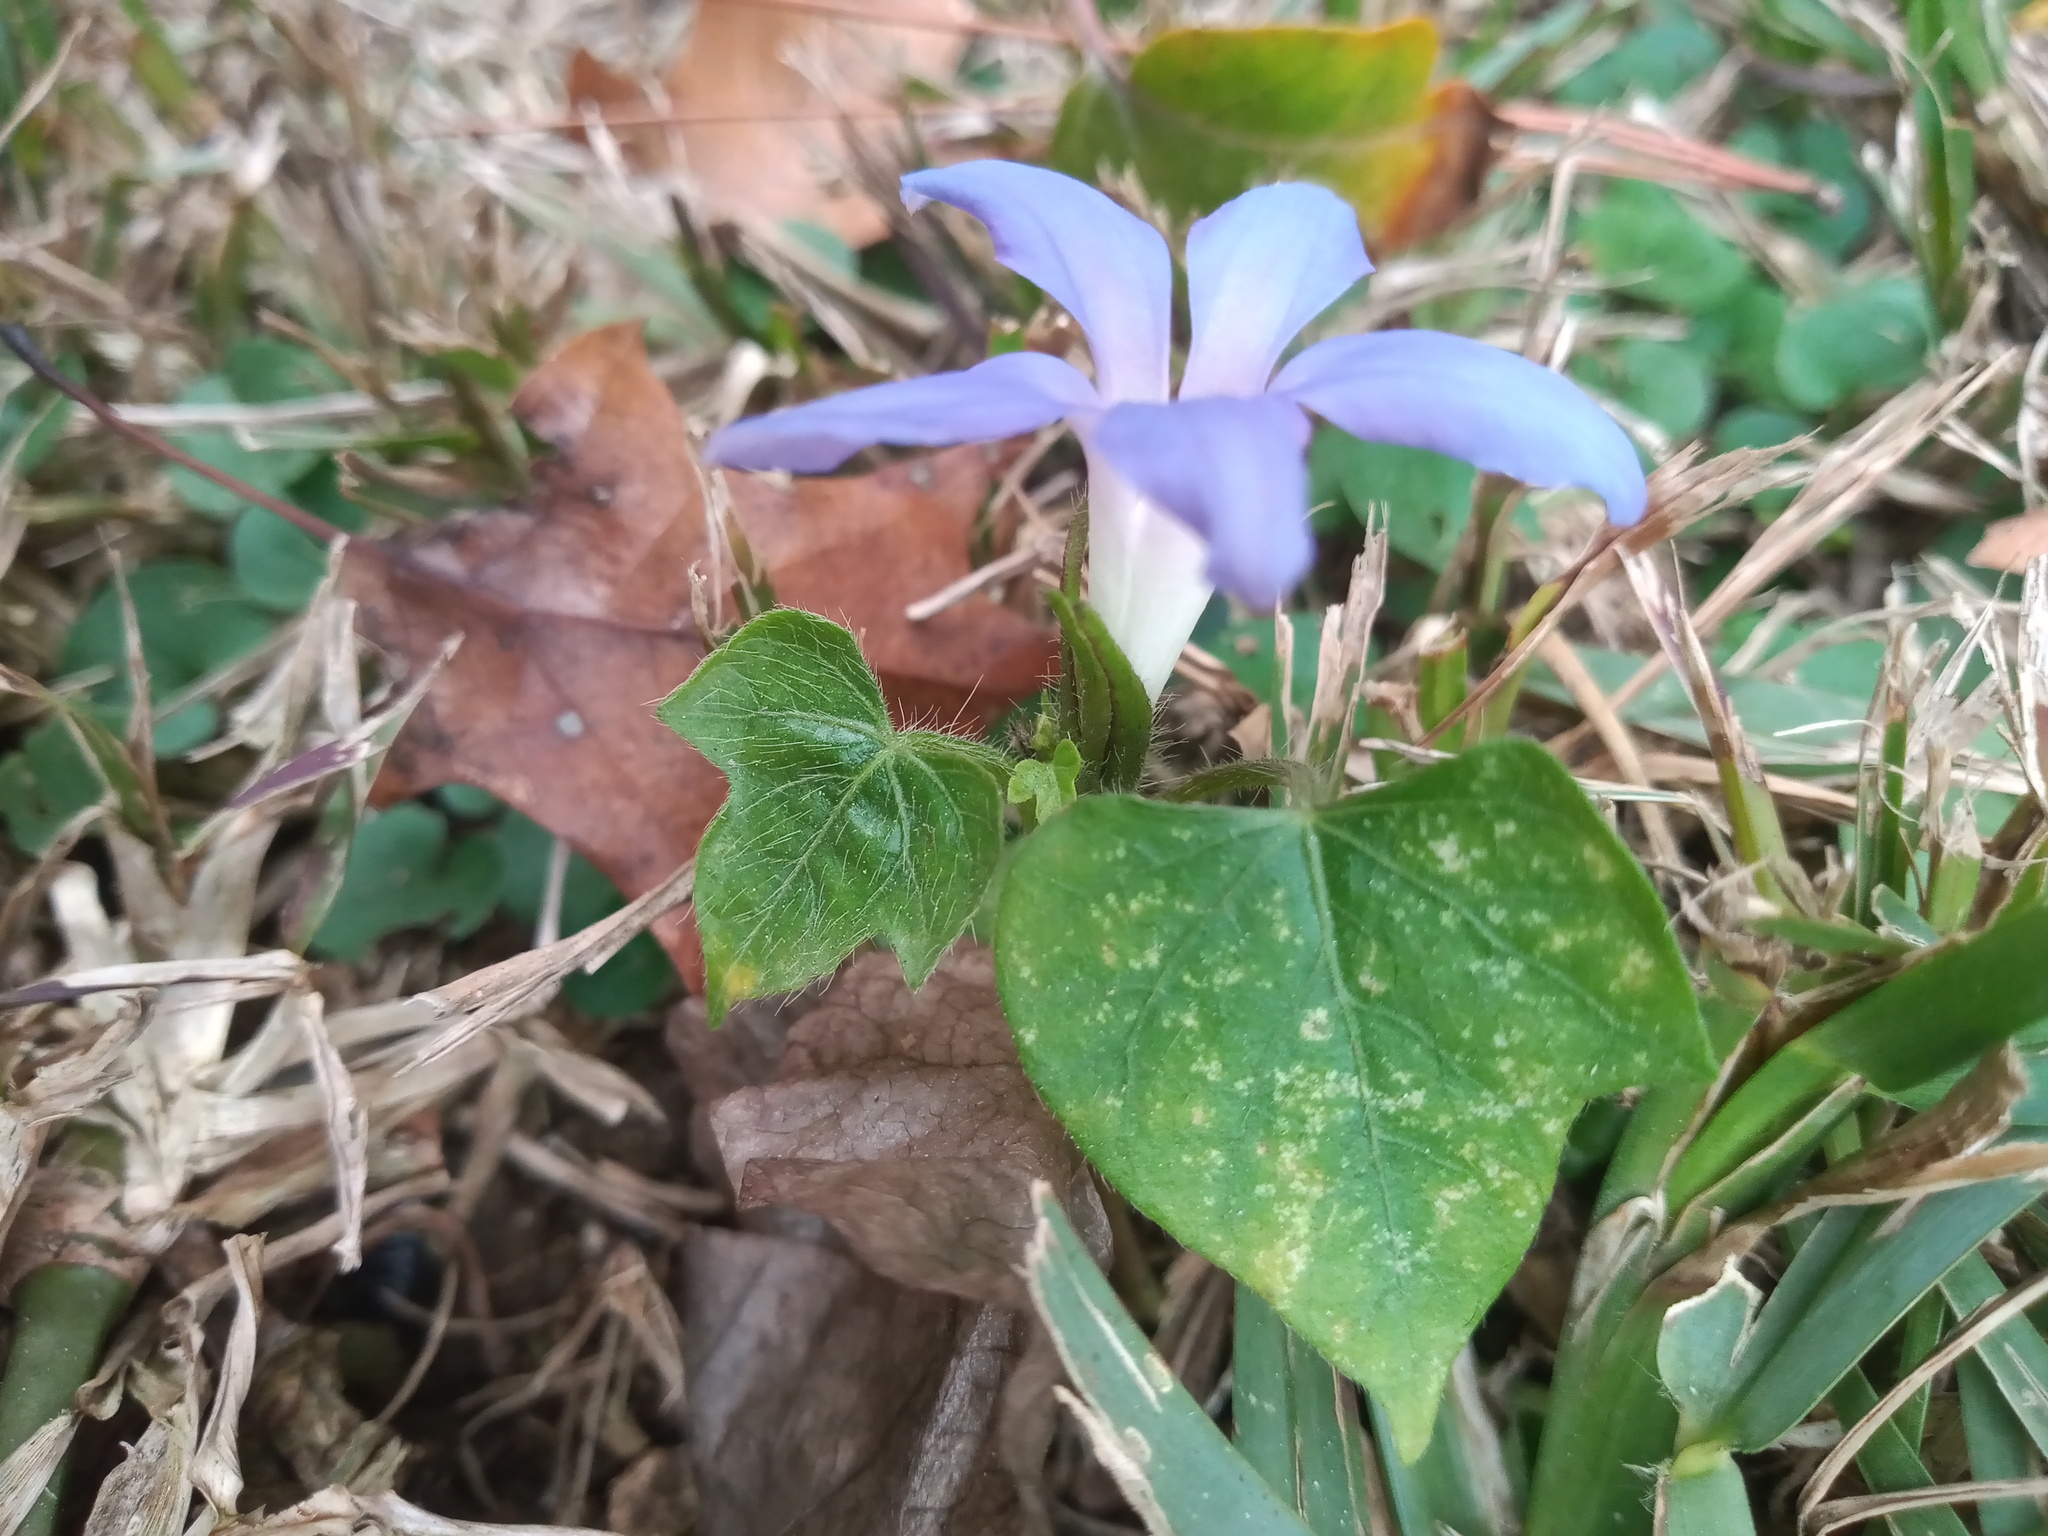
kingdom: Plantae
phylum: Tracheophyta
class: Magnoliopsida
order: Solanales
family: Convolvulaceae
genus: Ipomoea
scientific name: Ipomoea nil
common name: Japanese morning-glory
